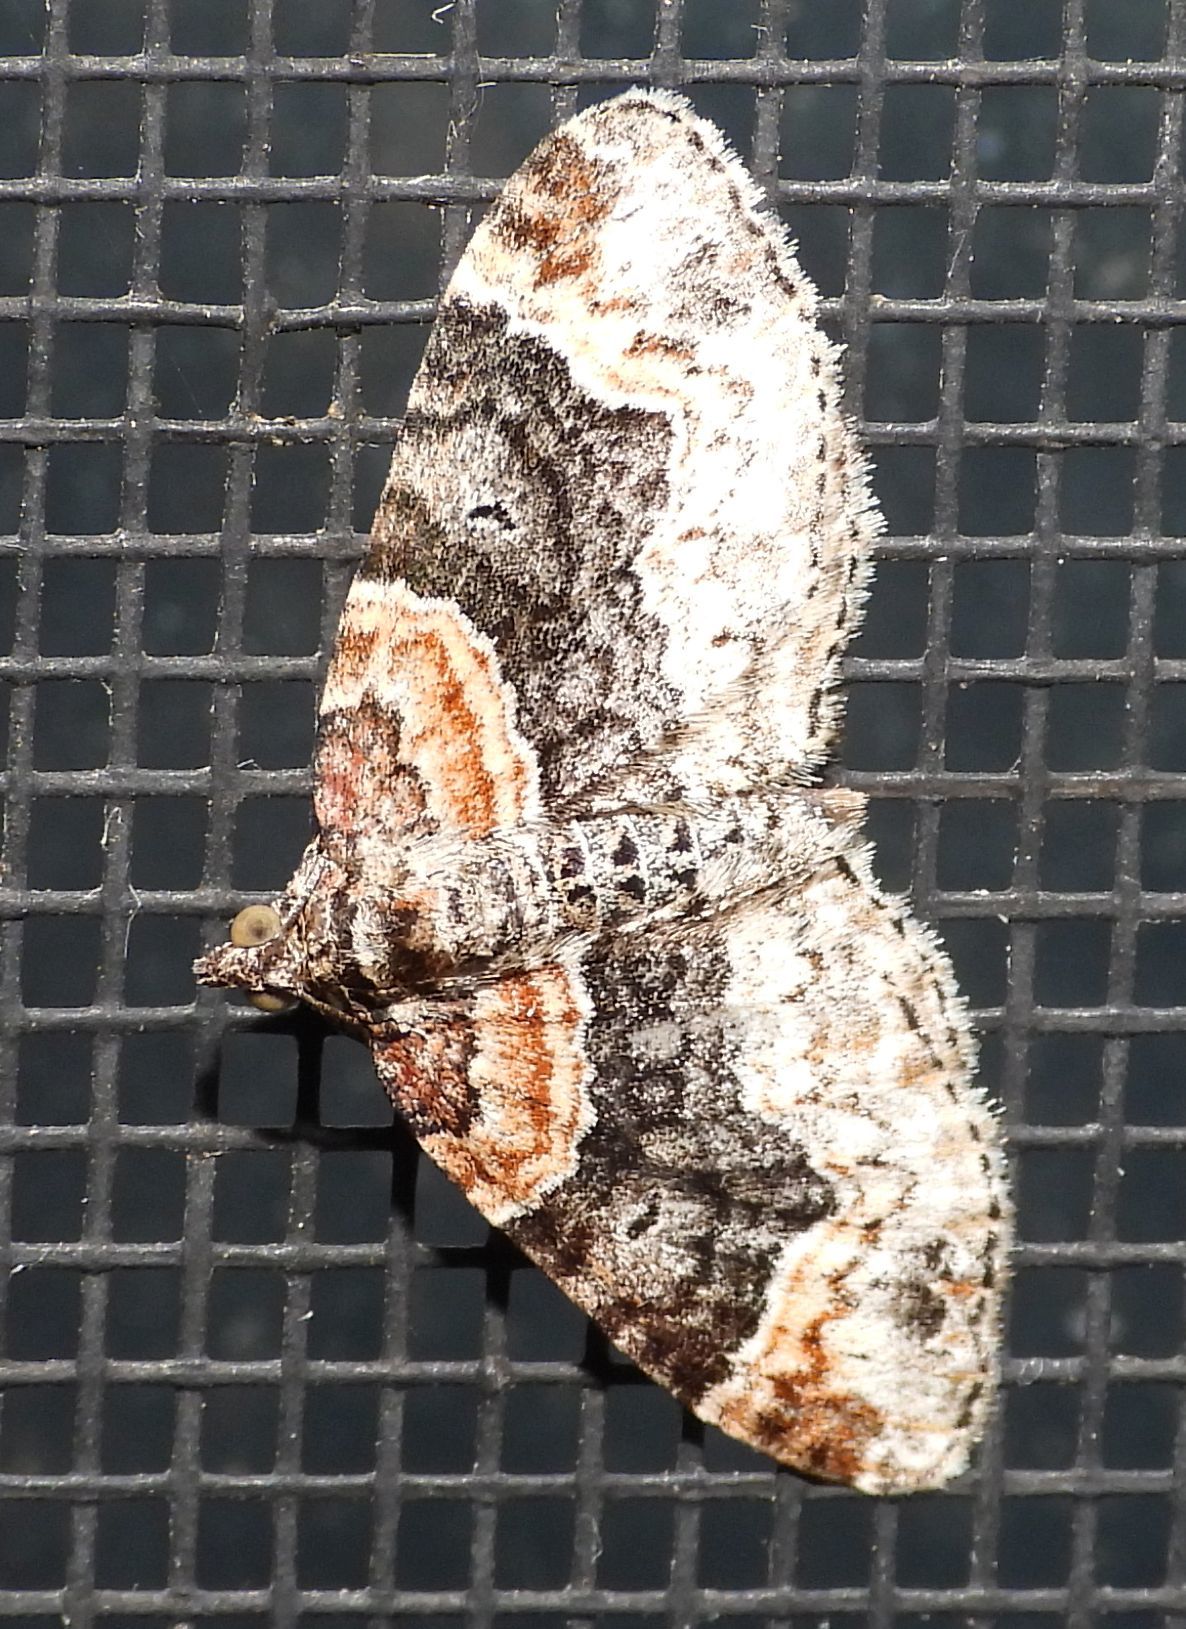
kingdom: Animalia
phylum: Arthropoda
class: Insecta
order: Lepidoptera
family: Geometridae
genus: Xanthorhoe
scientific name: Xanthorhoe ferrugata
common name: Dark-barred twin-spot carpet
